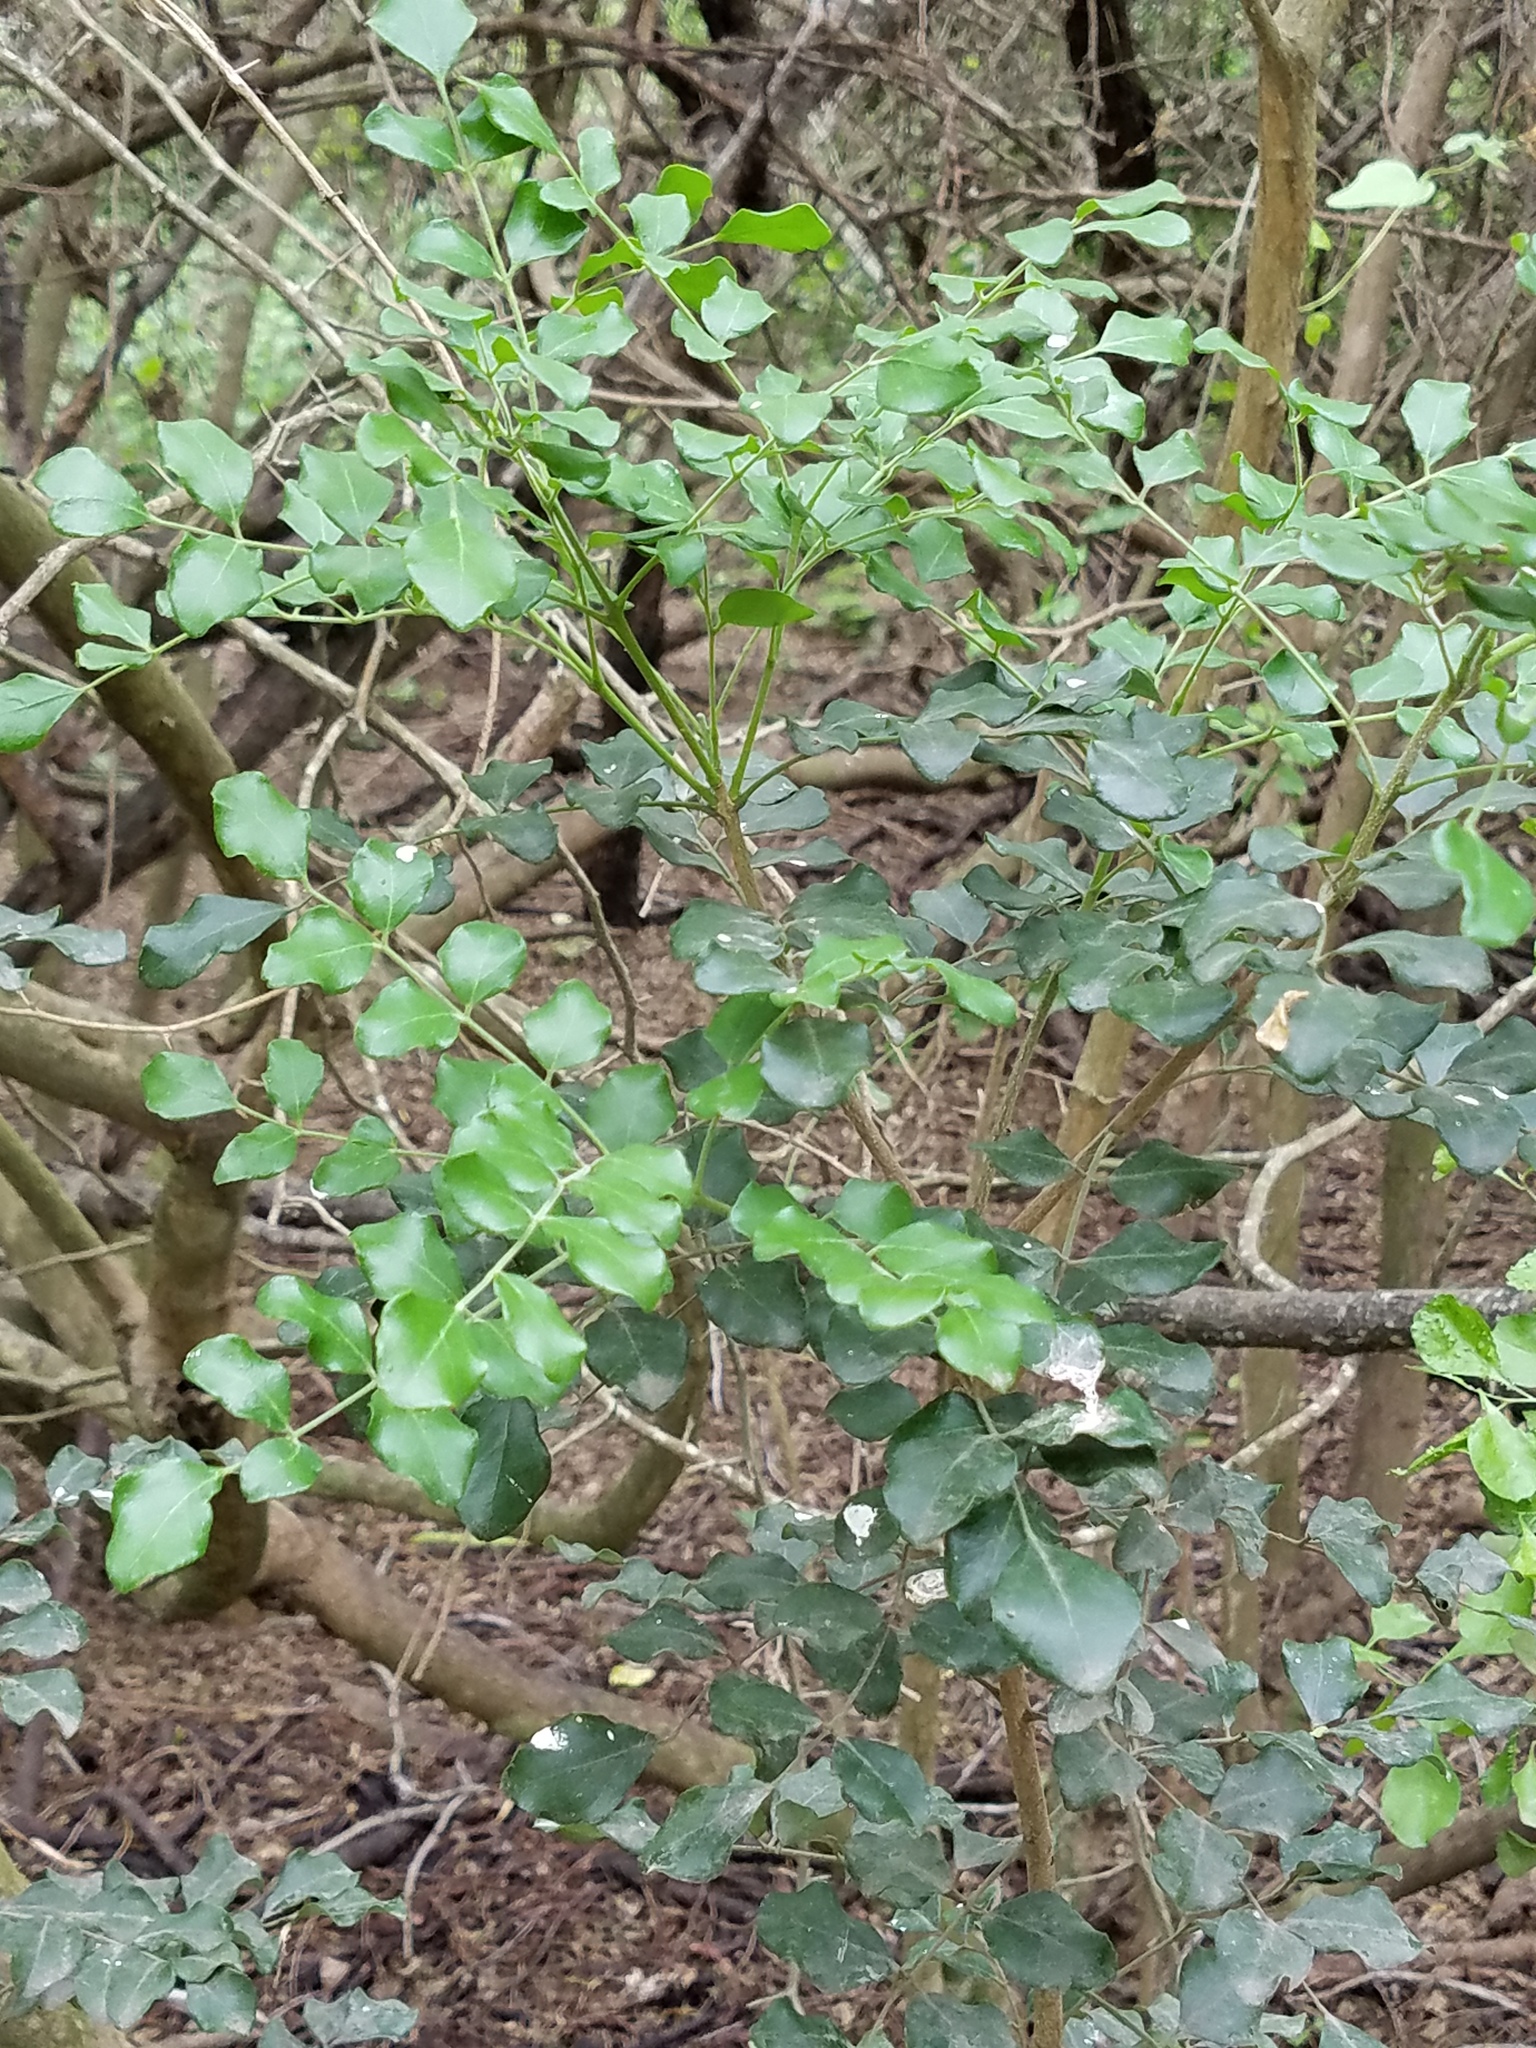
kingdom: Plantae
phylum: Tracheophyta
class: Magnoliopsida
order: Sapindales
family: Rutaceae
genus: Amyris
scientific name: Amyris madrensis
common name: Mountain torchwood
